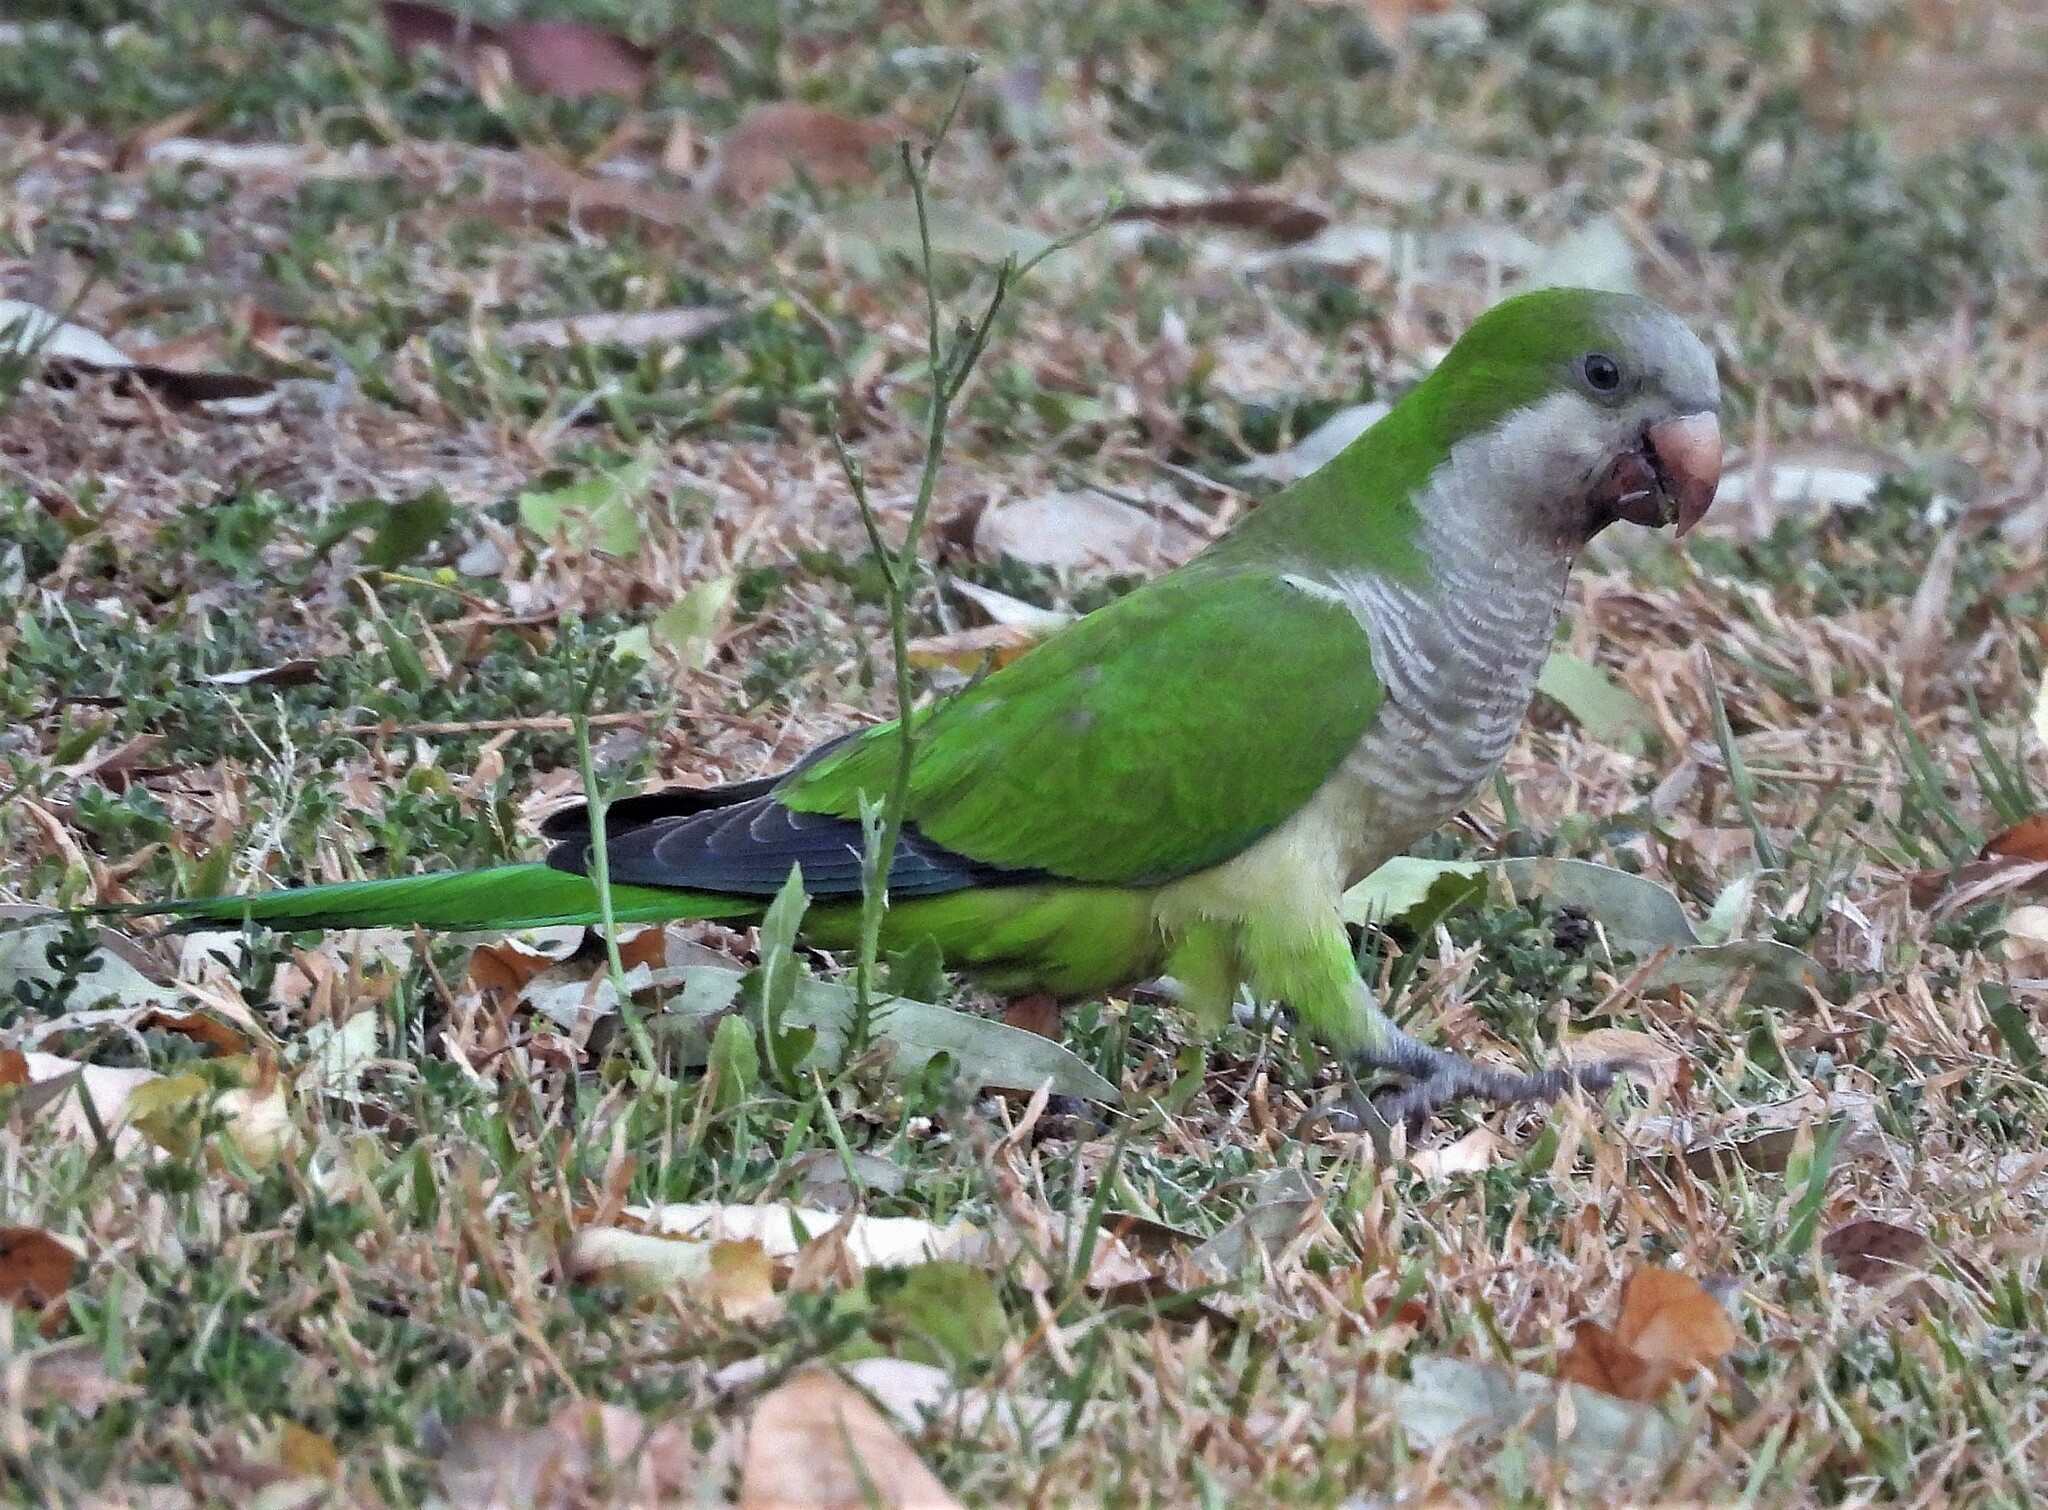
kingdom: Animalia
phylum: Chordata
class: Aves
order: Psittaciformes
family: Psittacidae
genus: Myiopsitta
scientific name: Myiopsitta monachus
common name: Monk parakeet
